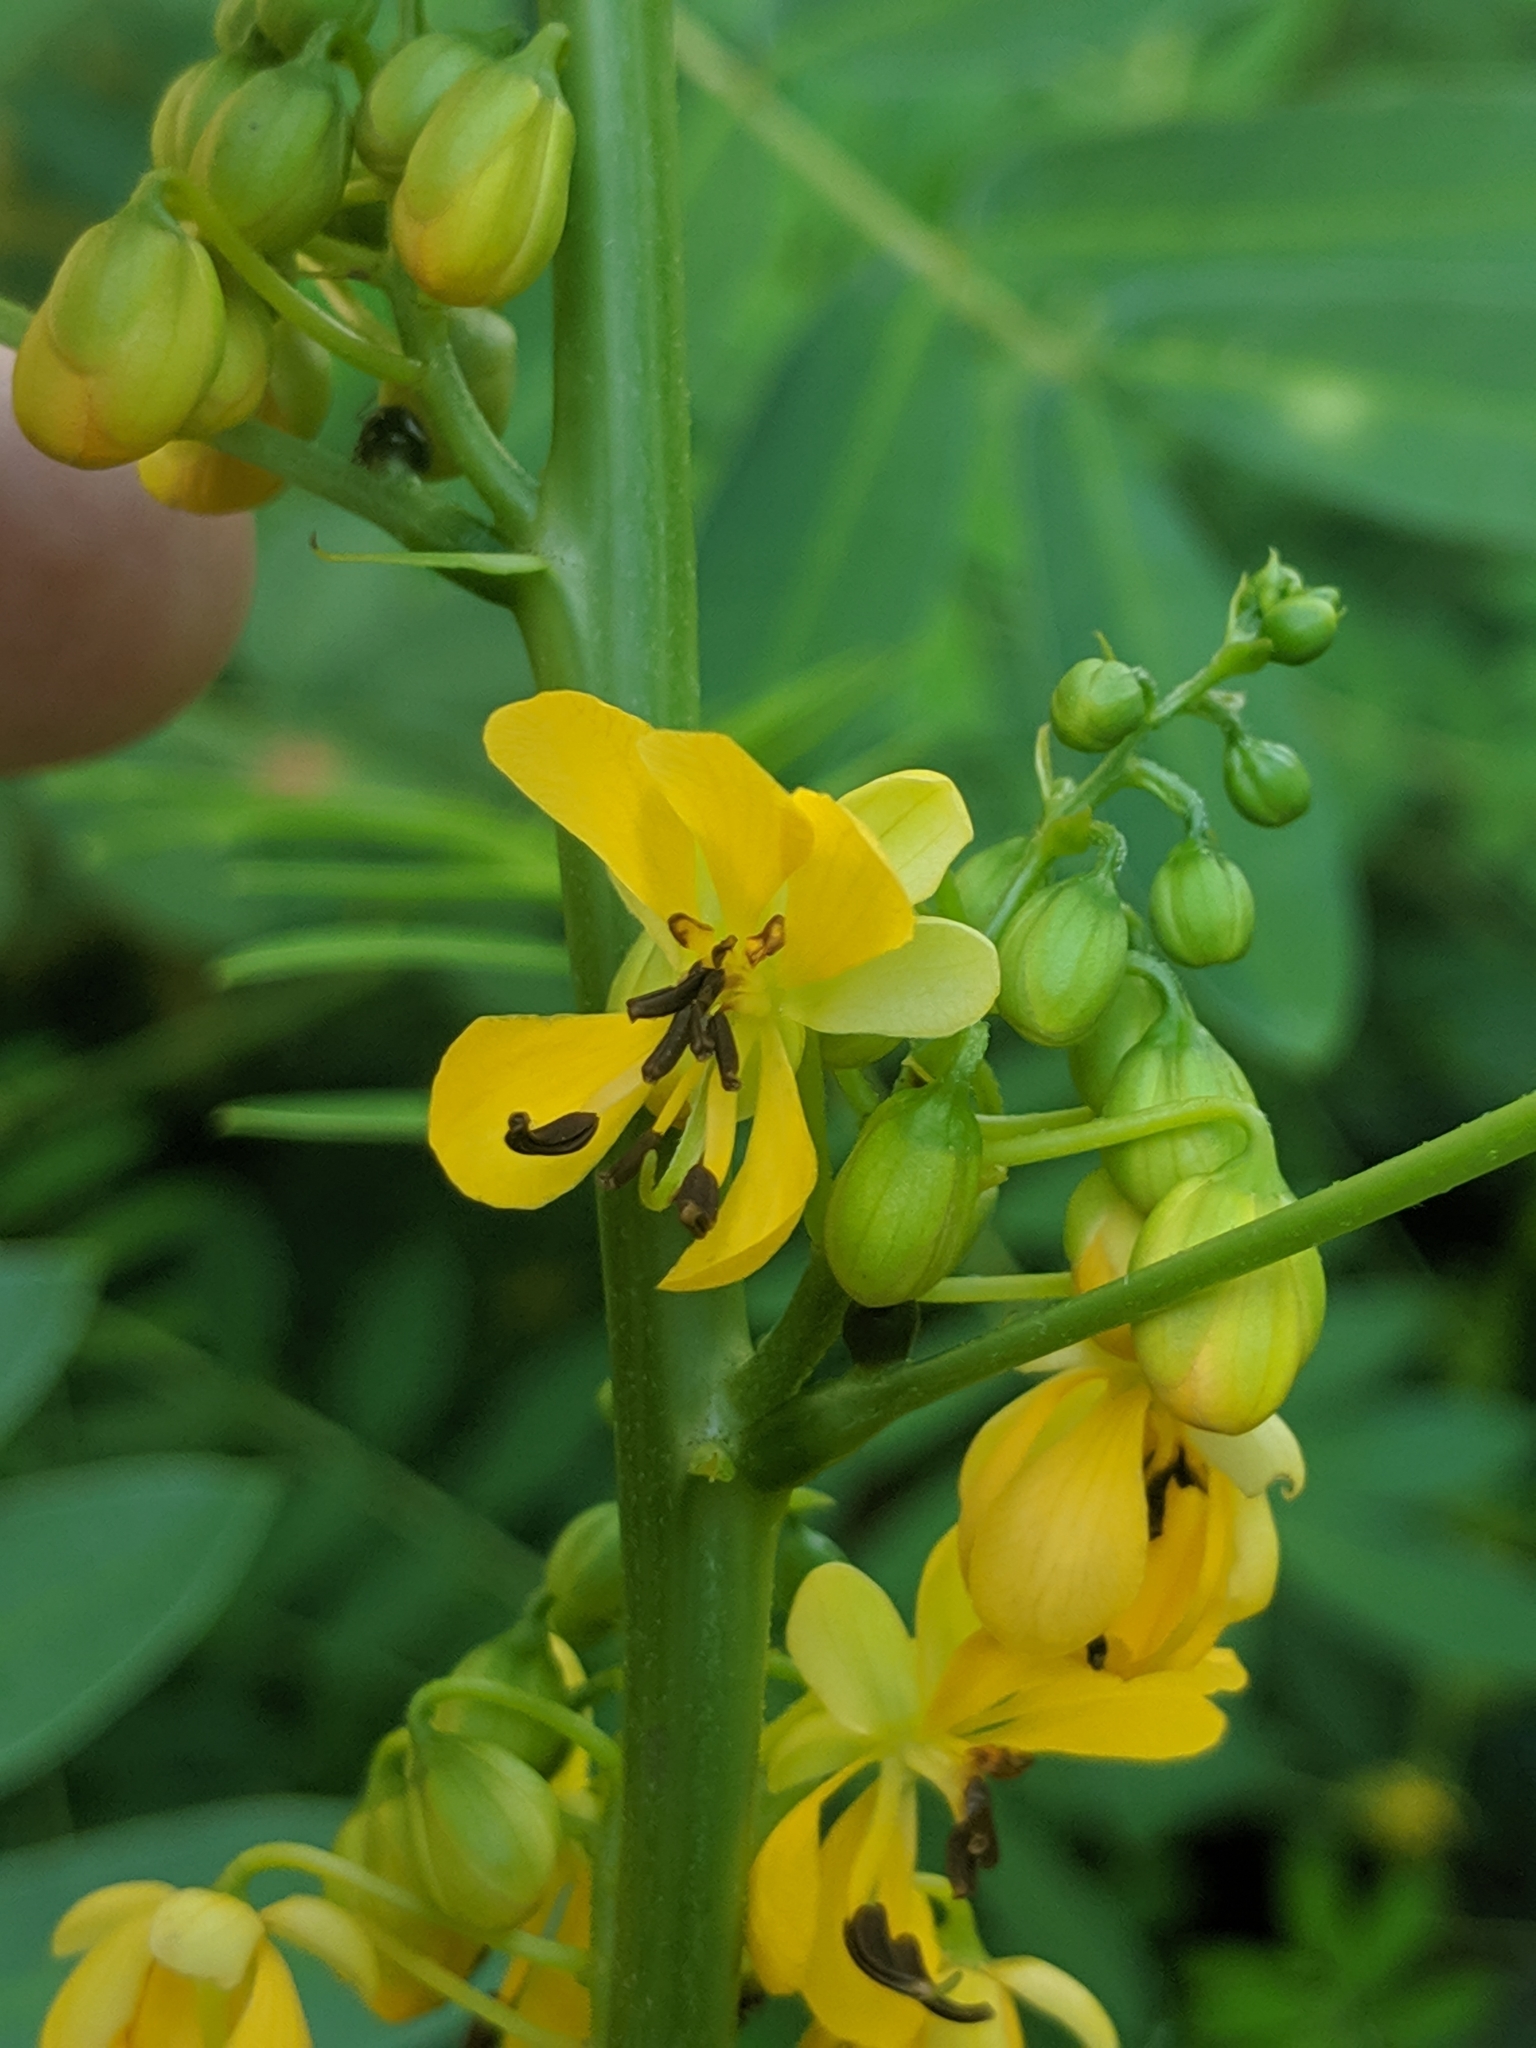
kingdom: Plantae
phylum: Tracheophyta
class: Magnoliopsida
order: Fabales
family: Fabaceae
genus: Senna
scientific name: Senna marilandica
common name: American senna
